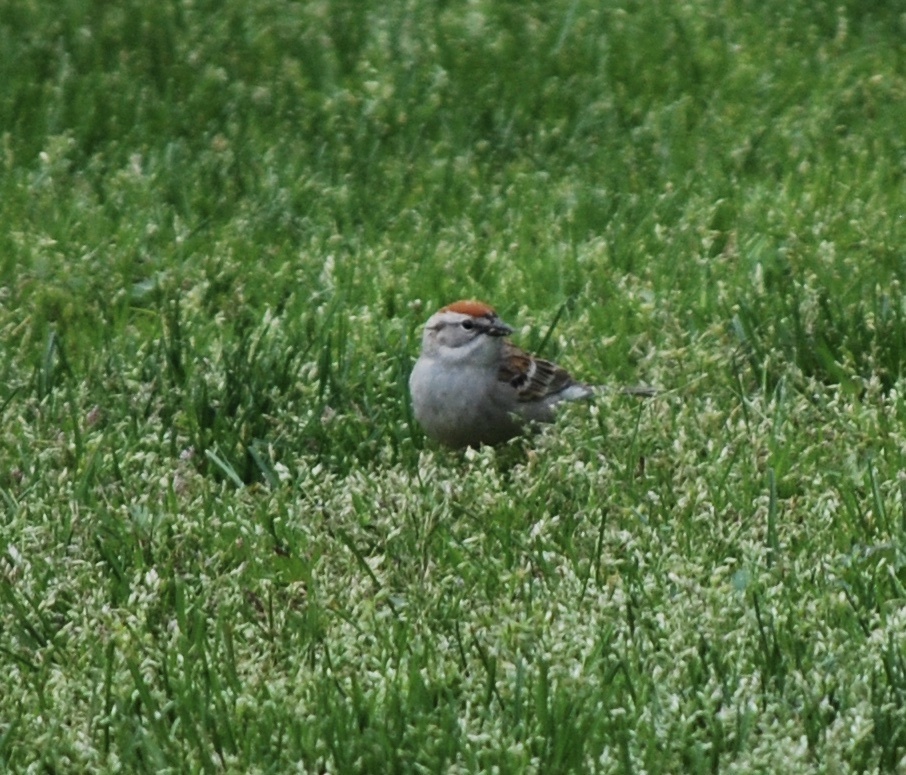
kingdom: Animalia
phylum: Chordata
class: Aves
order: Passeriformes
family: Passerellidae
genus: Spizella
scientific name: Spizella passerina
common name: Chipping sparrow
